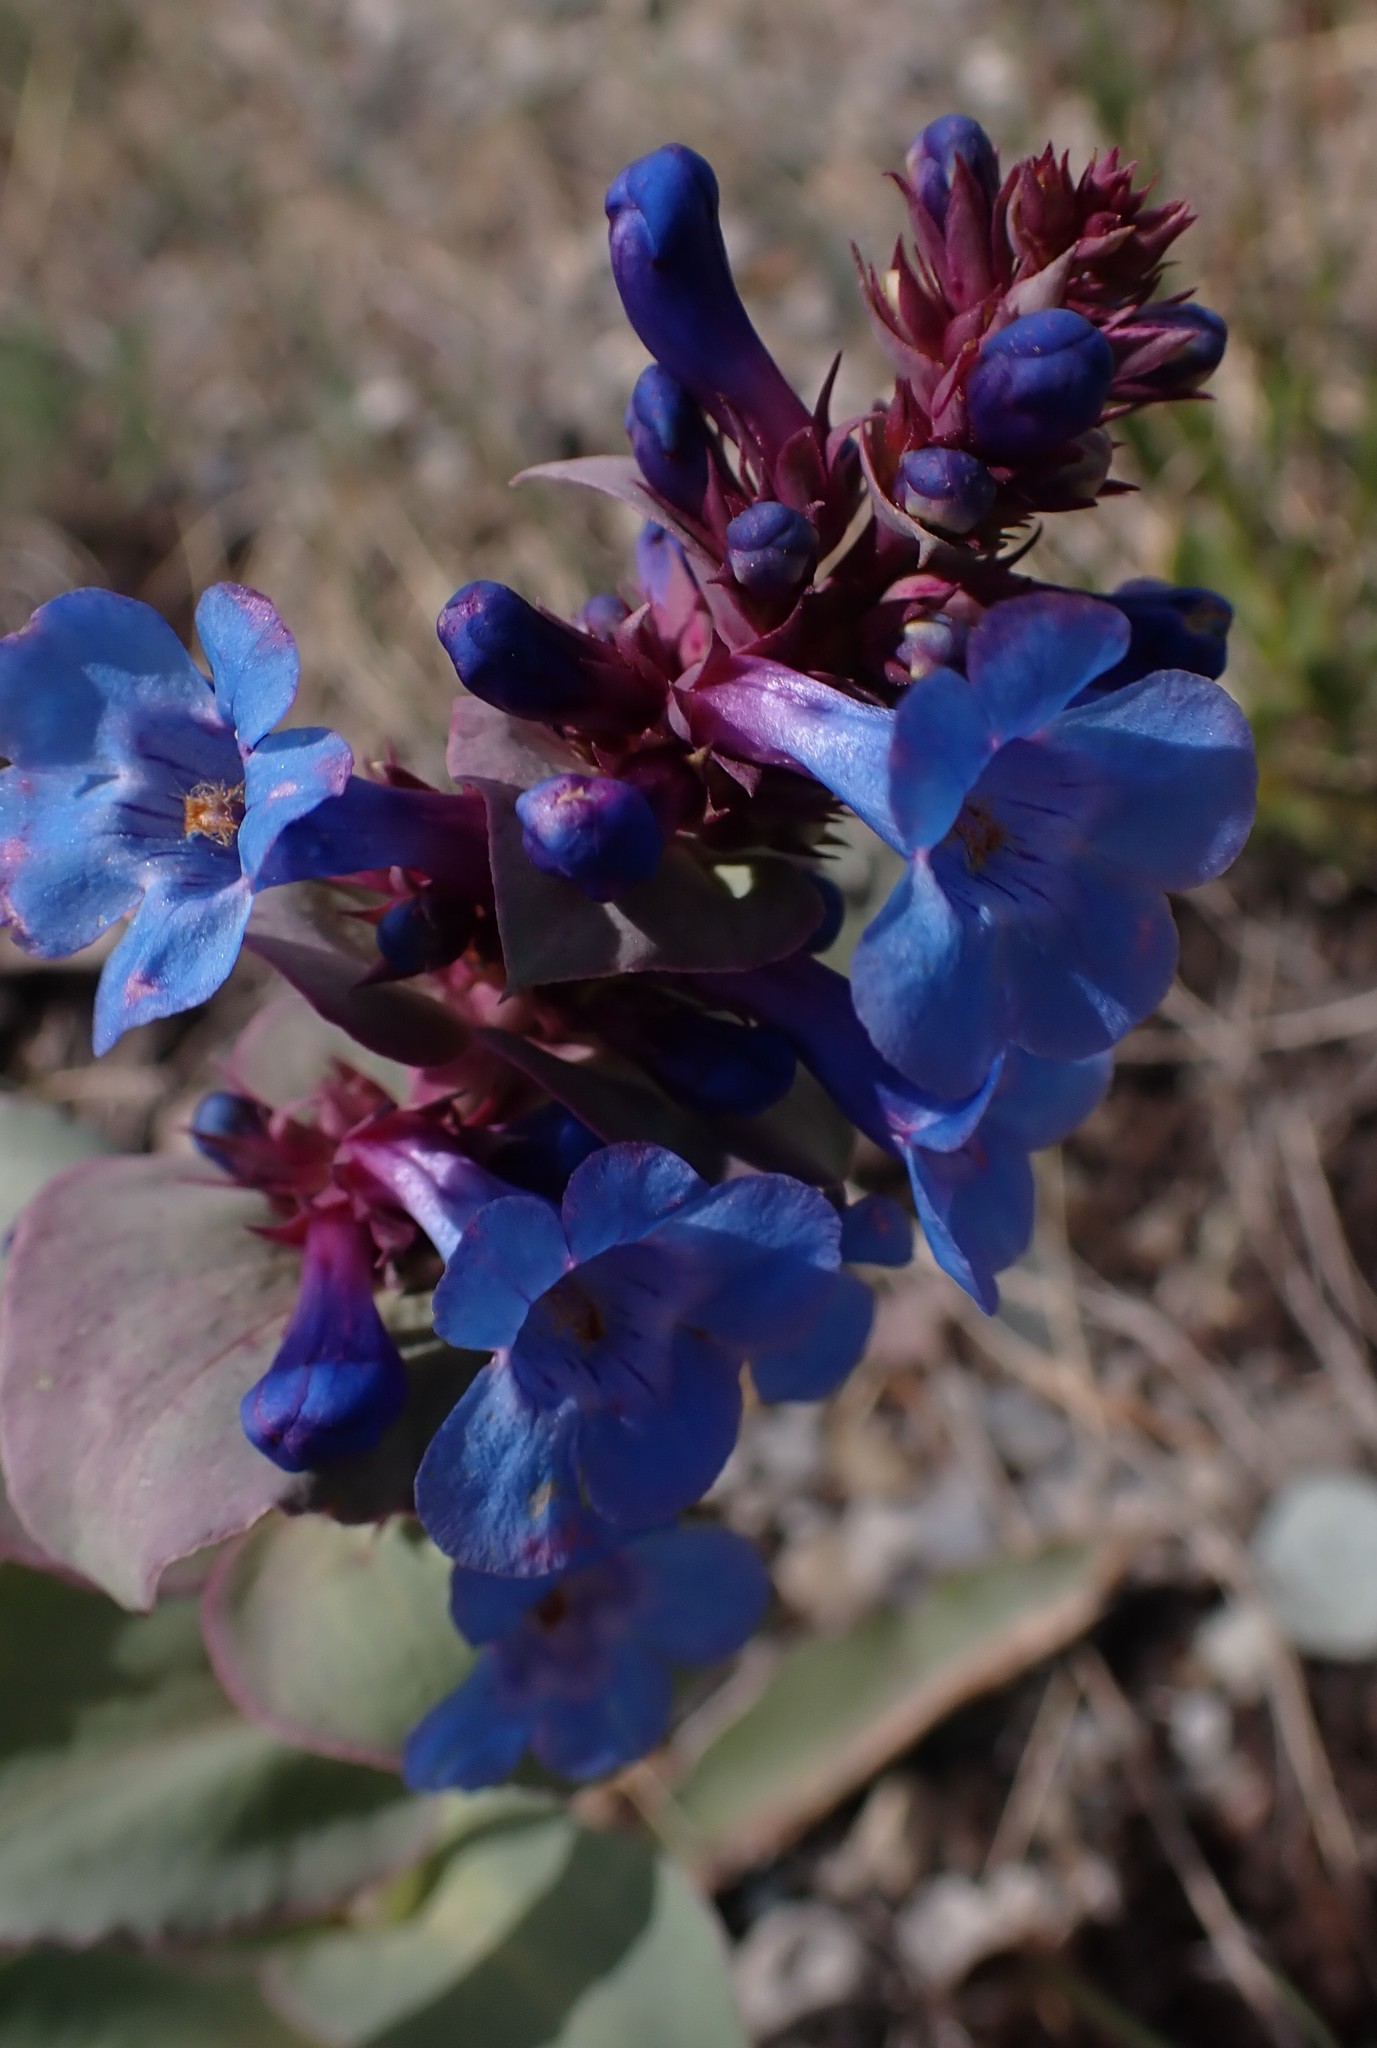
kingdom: Plantae
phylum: Tracheophyta
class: Magnoliopsida
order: Lamiales
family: Plantaginaceae
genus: Penstemon
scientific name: Penstemon nitidus
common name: Shining penstemon
